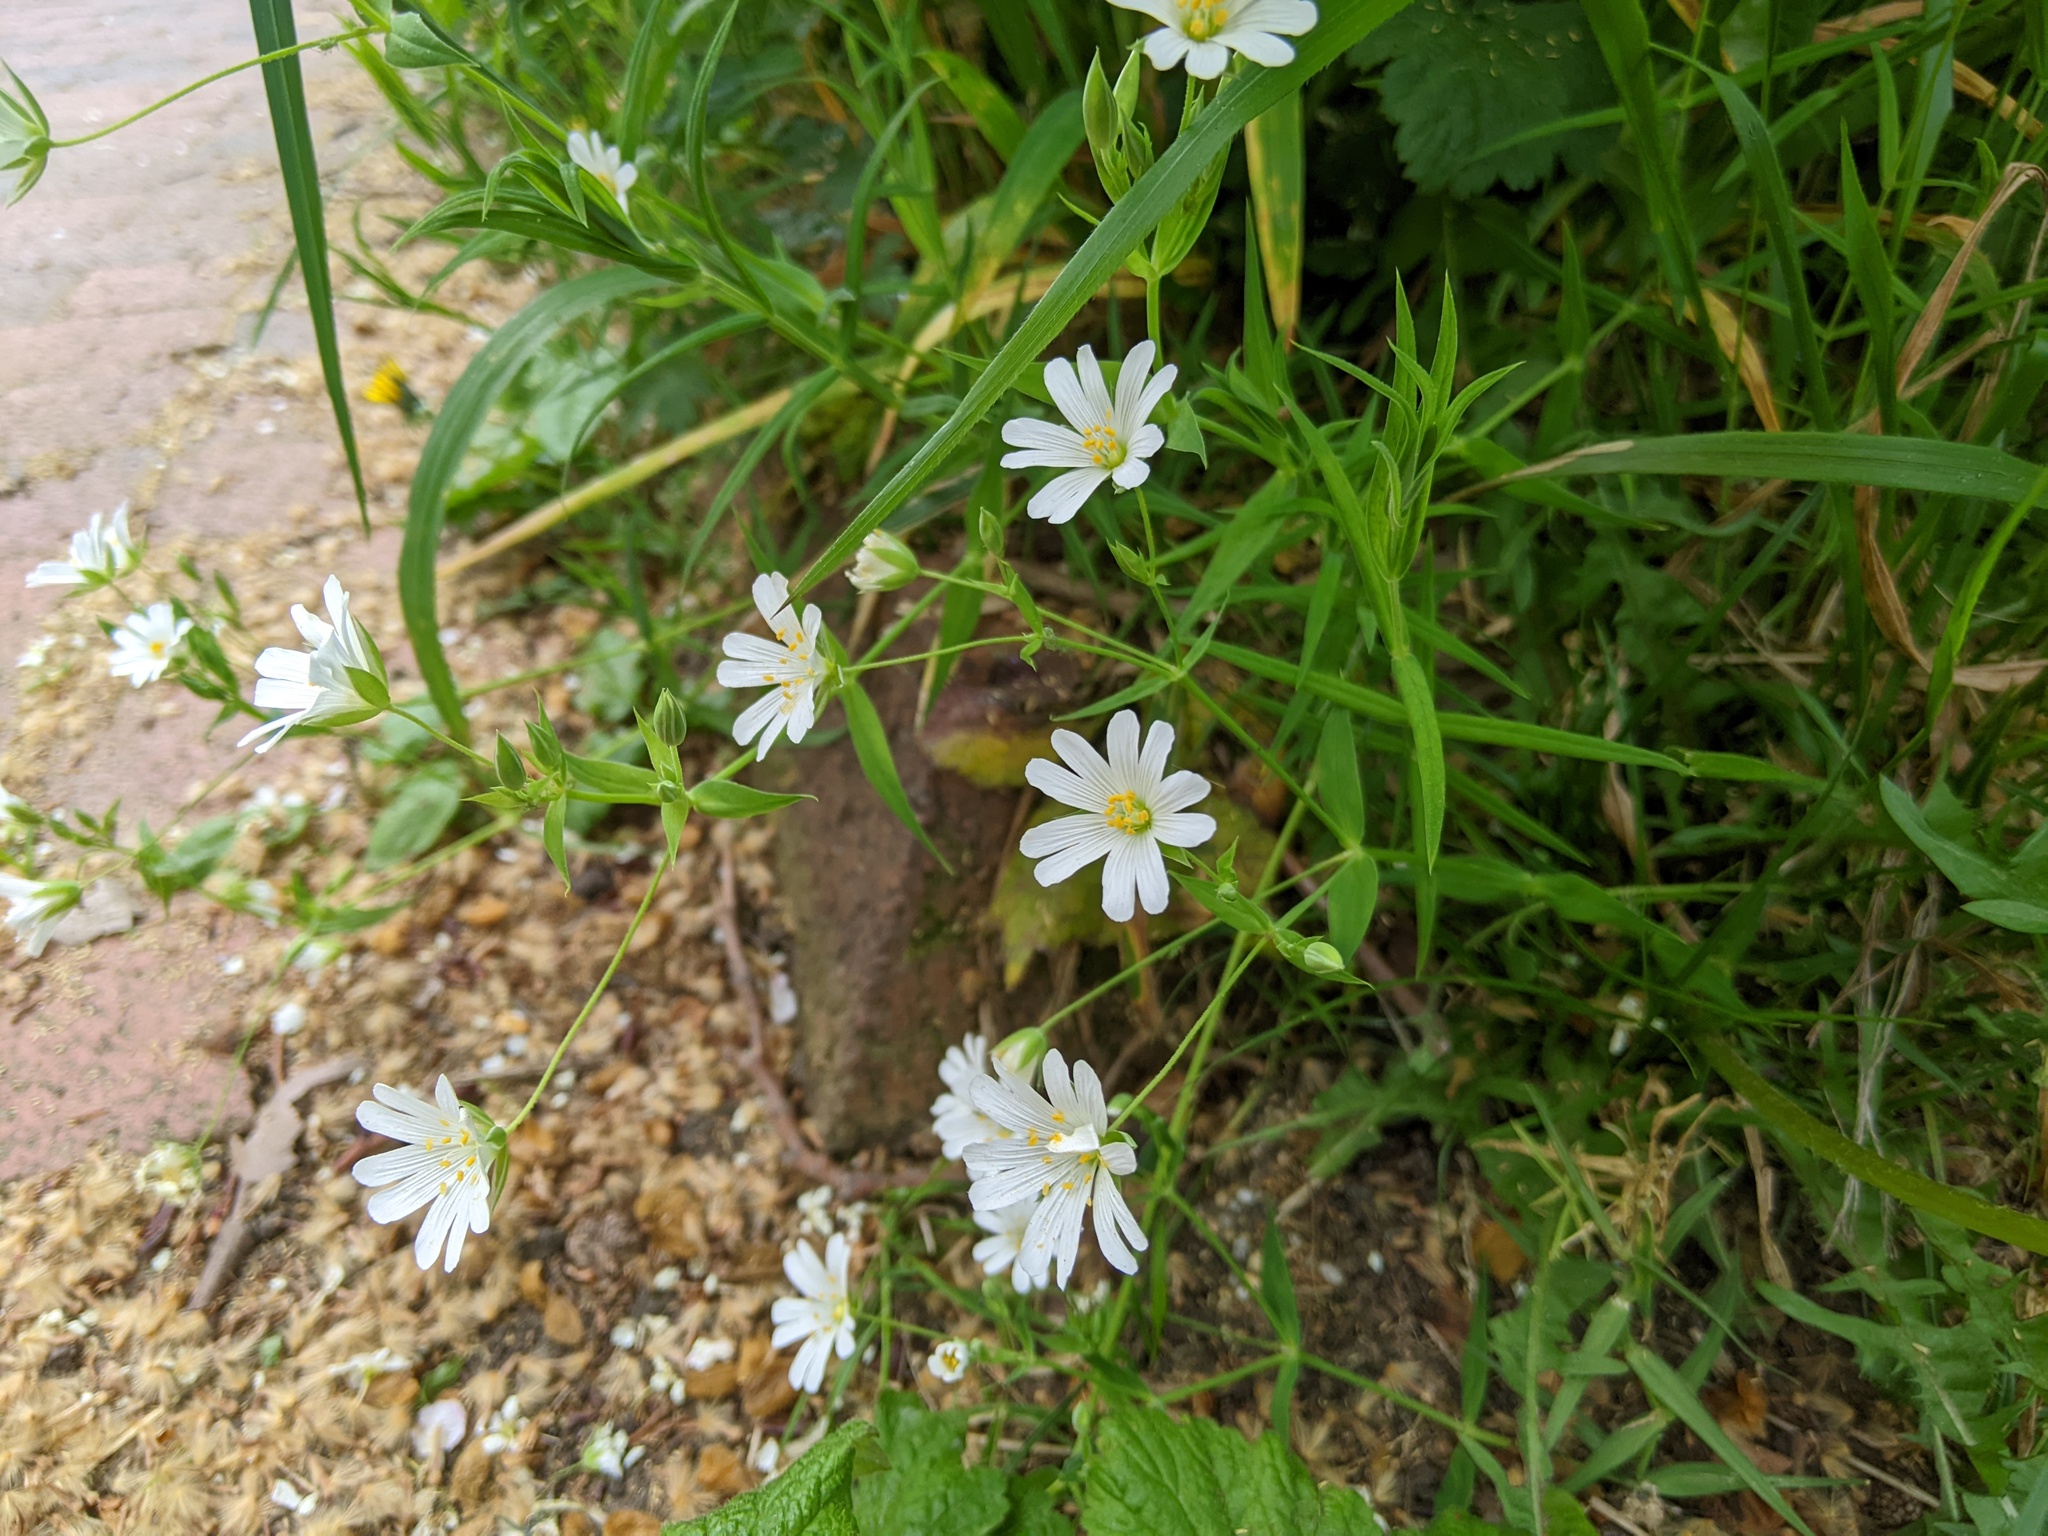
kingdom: Plantae
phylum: Tracheophyta
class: Magnoliopsida
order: Caryophyllales
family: Caryophyllaceae
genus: Rabelera
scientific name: Rabelera holostea
